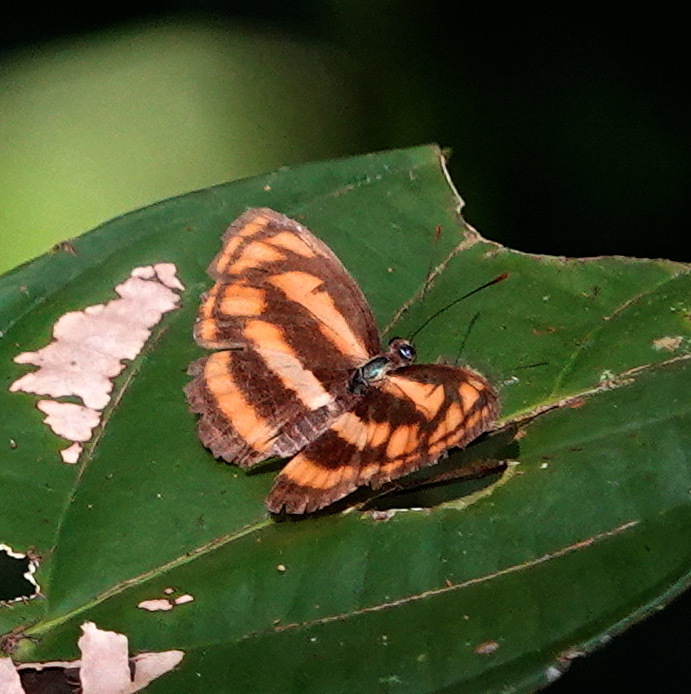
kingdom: Animalia
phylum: Arthropoda
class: Insecta
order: Lepidoptera
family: Nymphalidae
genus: Pantoporia
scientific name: Pantoporia aurelia
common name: Baby lascar
